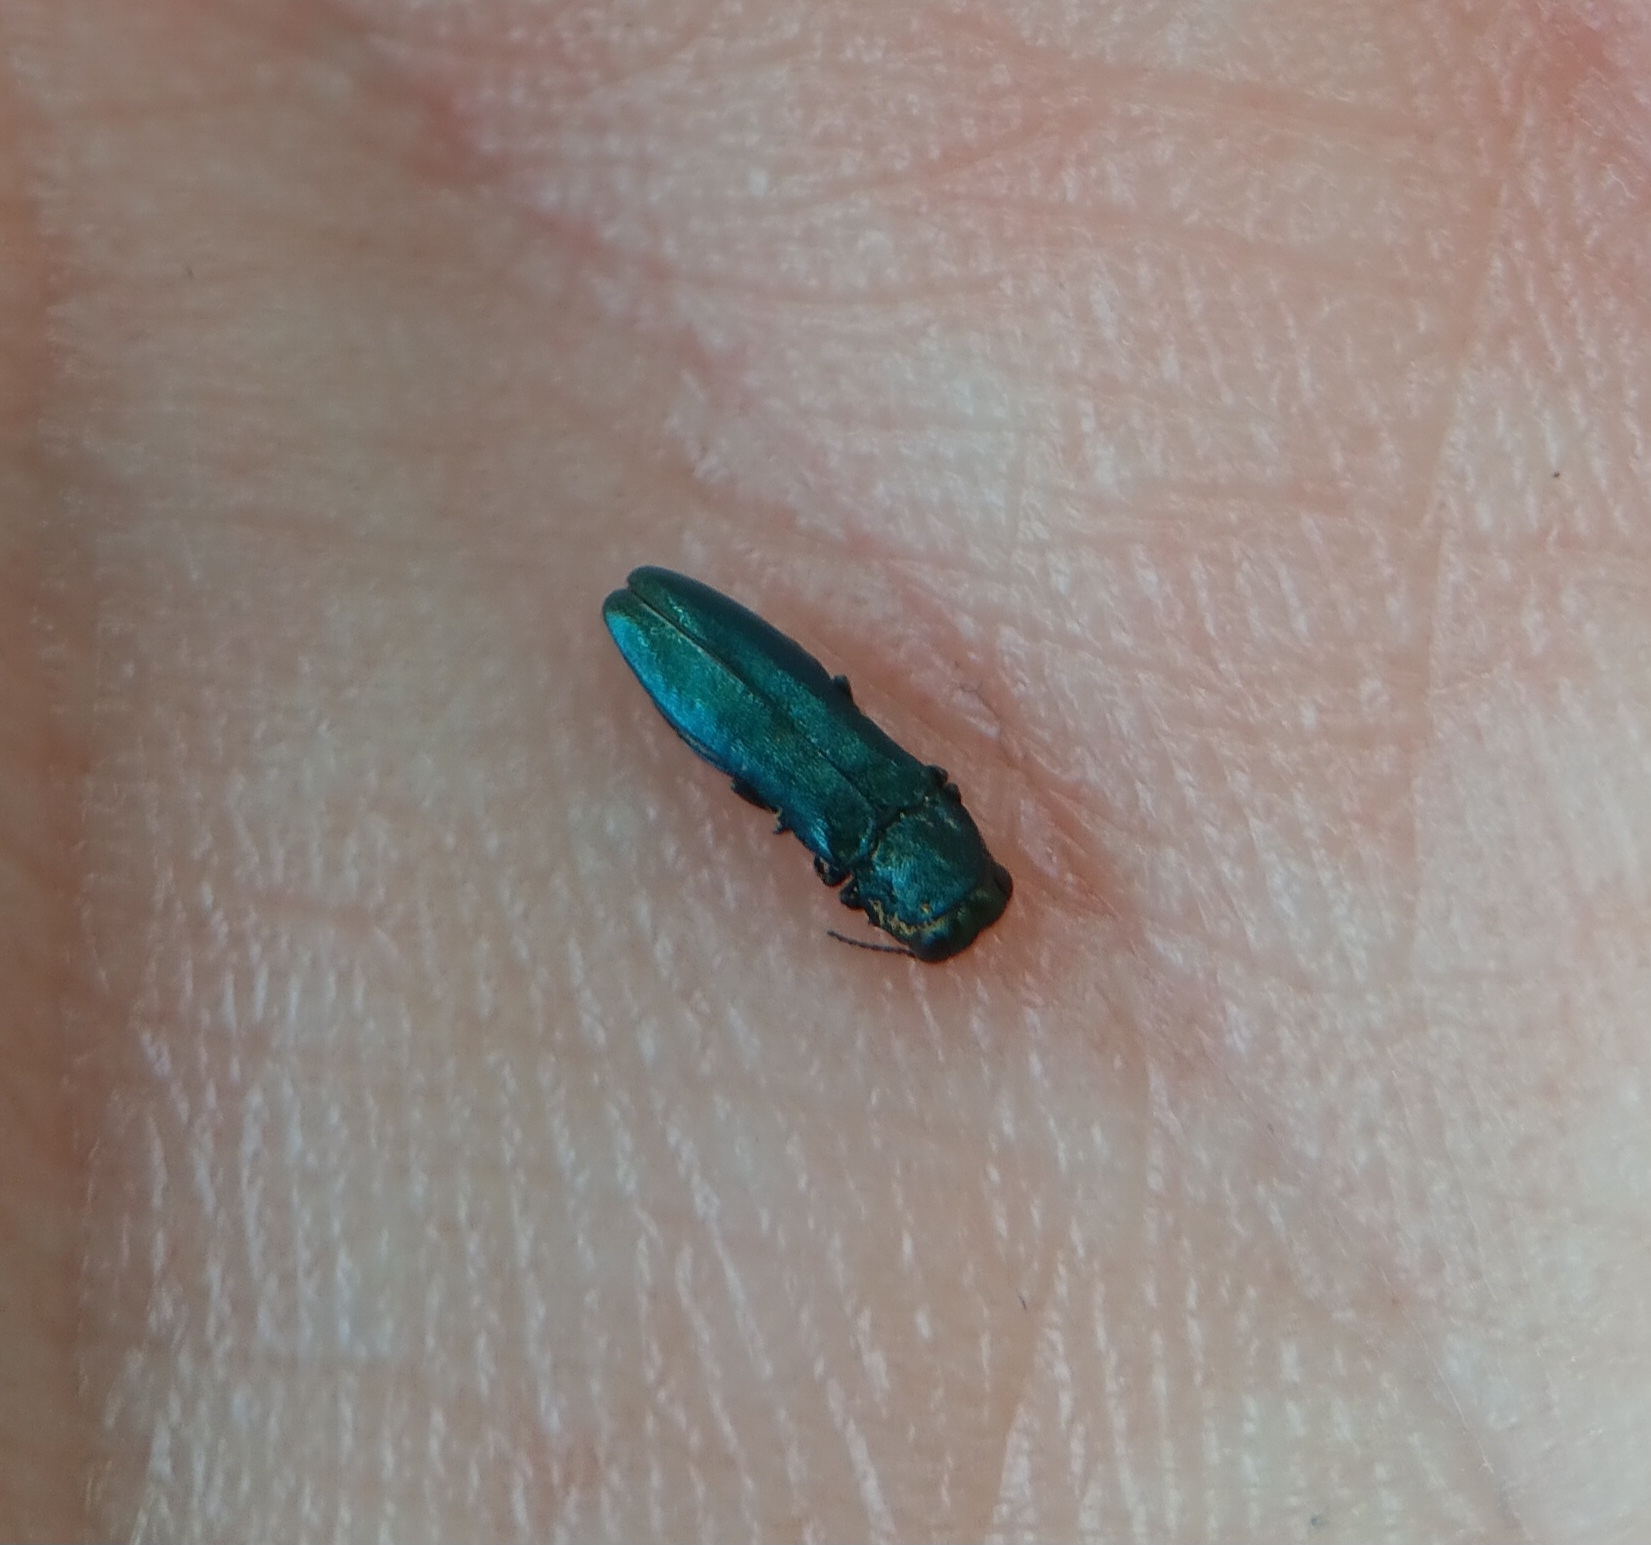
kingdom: Animalia
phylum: Arthropoda
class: Insecta
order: Coleoptera
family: Buprestidae
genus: Agrilus
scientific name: Agrilus cyanescens
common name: Bluish borer beetle
